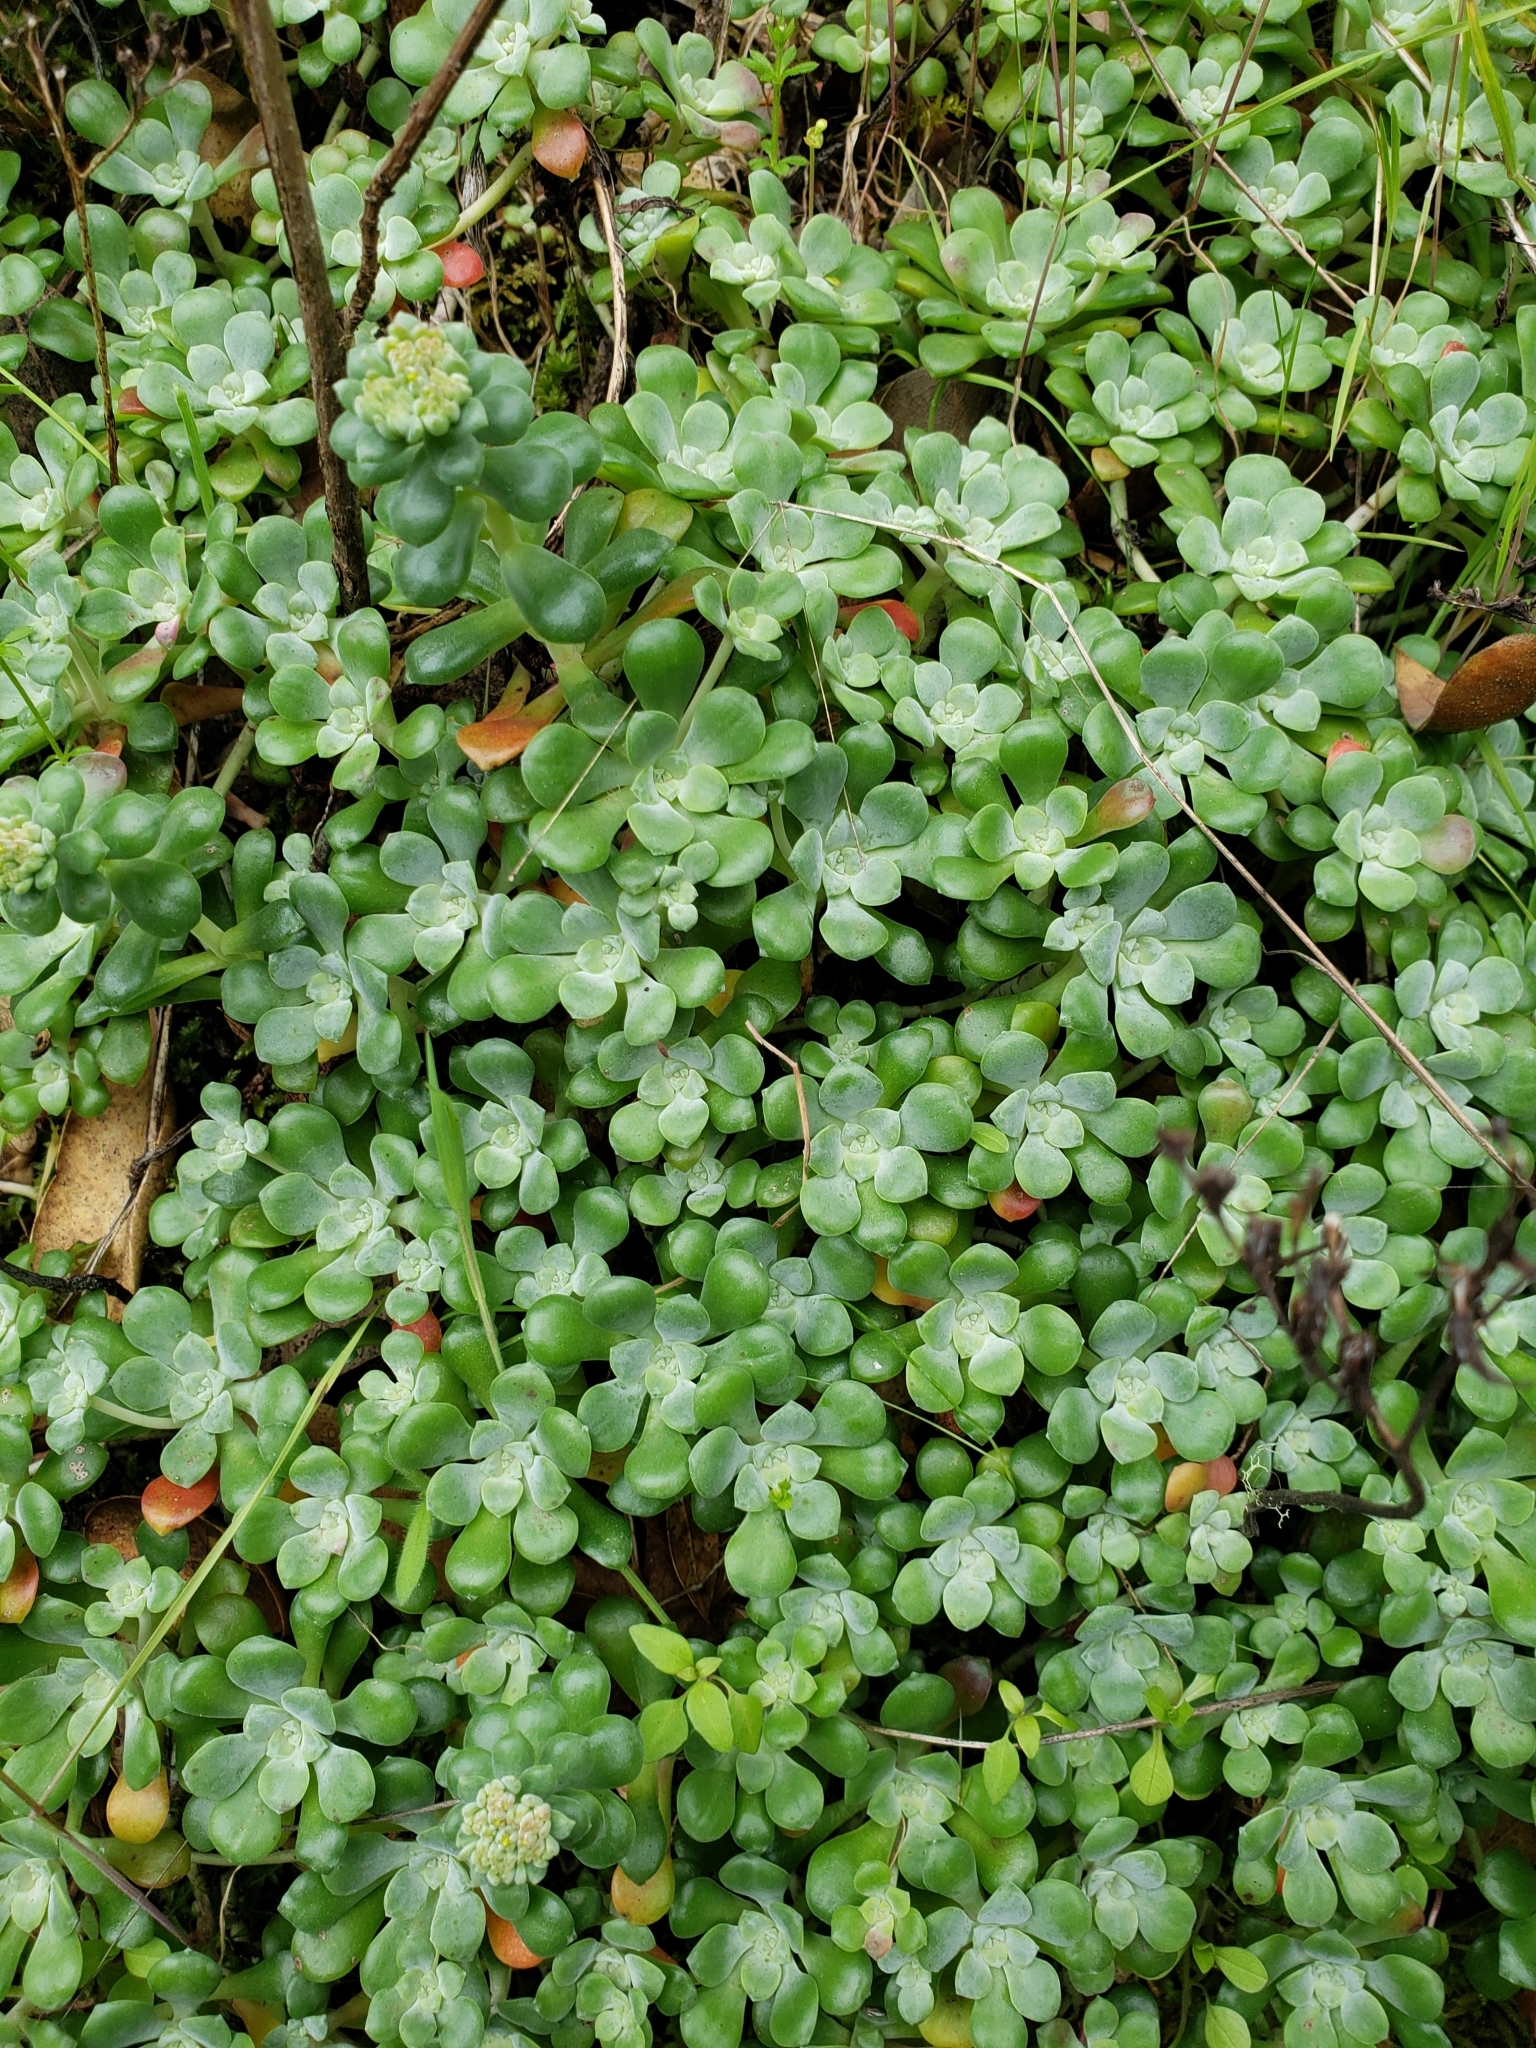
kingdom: Plantae
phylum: Tracheophyta
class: Magnoliopsida
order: Saxifragales
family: Crassulaceae
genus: Sedum
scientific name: Sedum spathulifolium
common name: Colorado stonecrop
